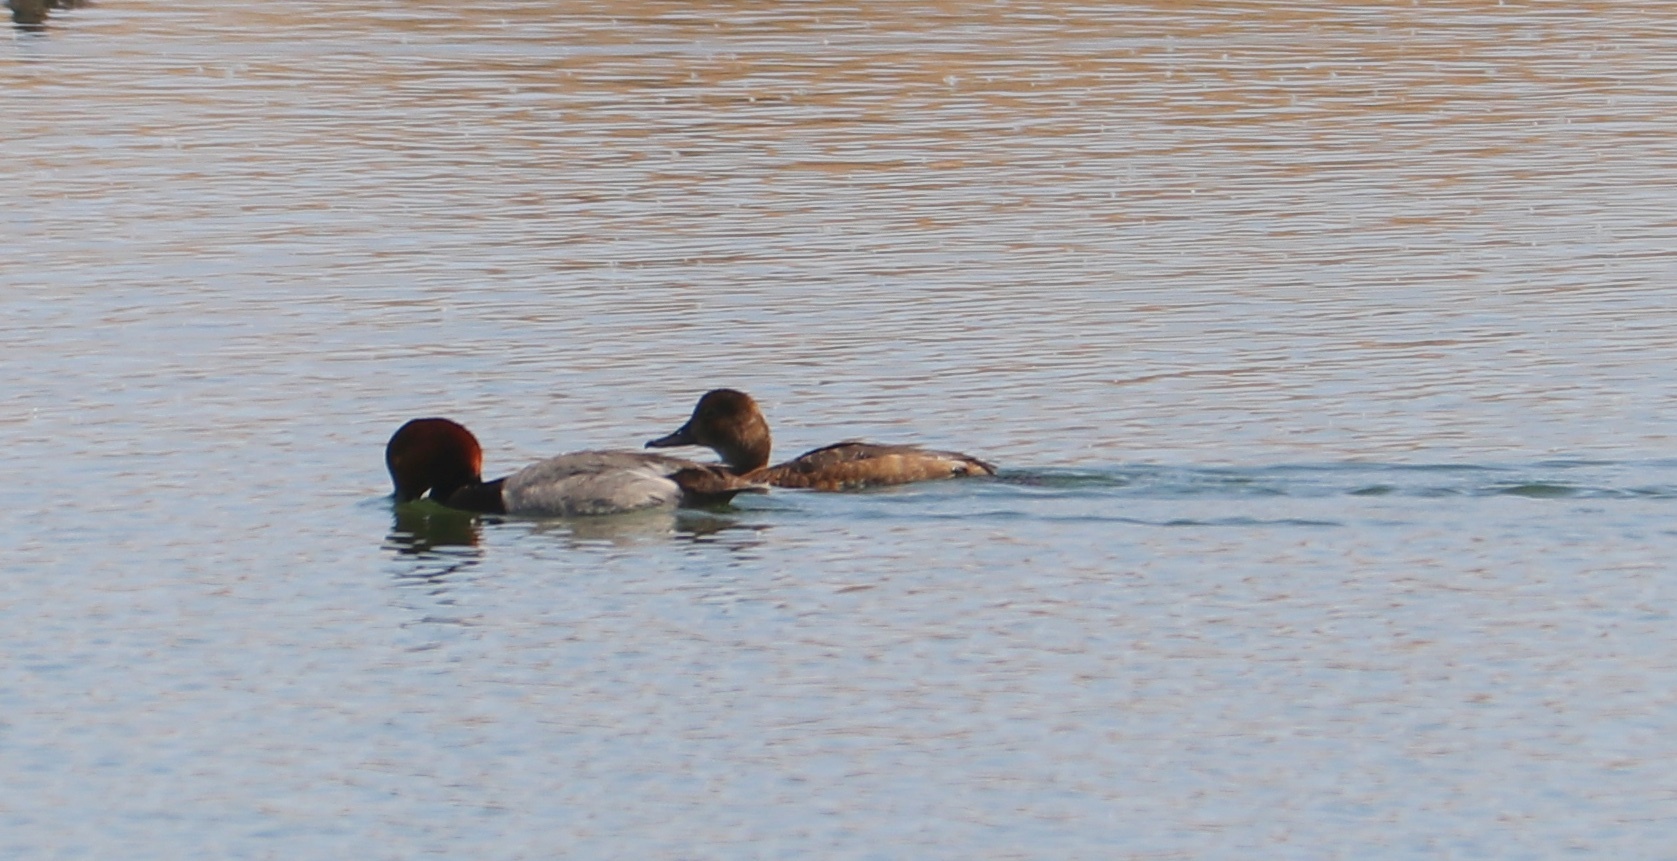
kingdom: Animalia
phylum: Chordata
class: Aves
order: Anseriformes
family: Anatidae
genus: Aythya
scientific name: Aythya americana
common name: Redhead
